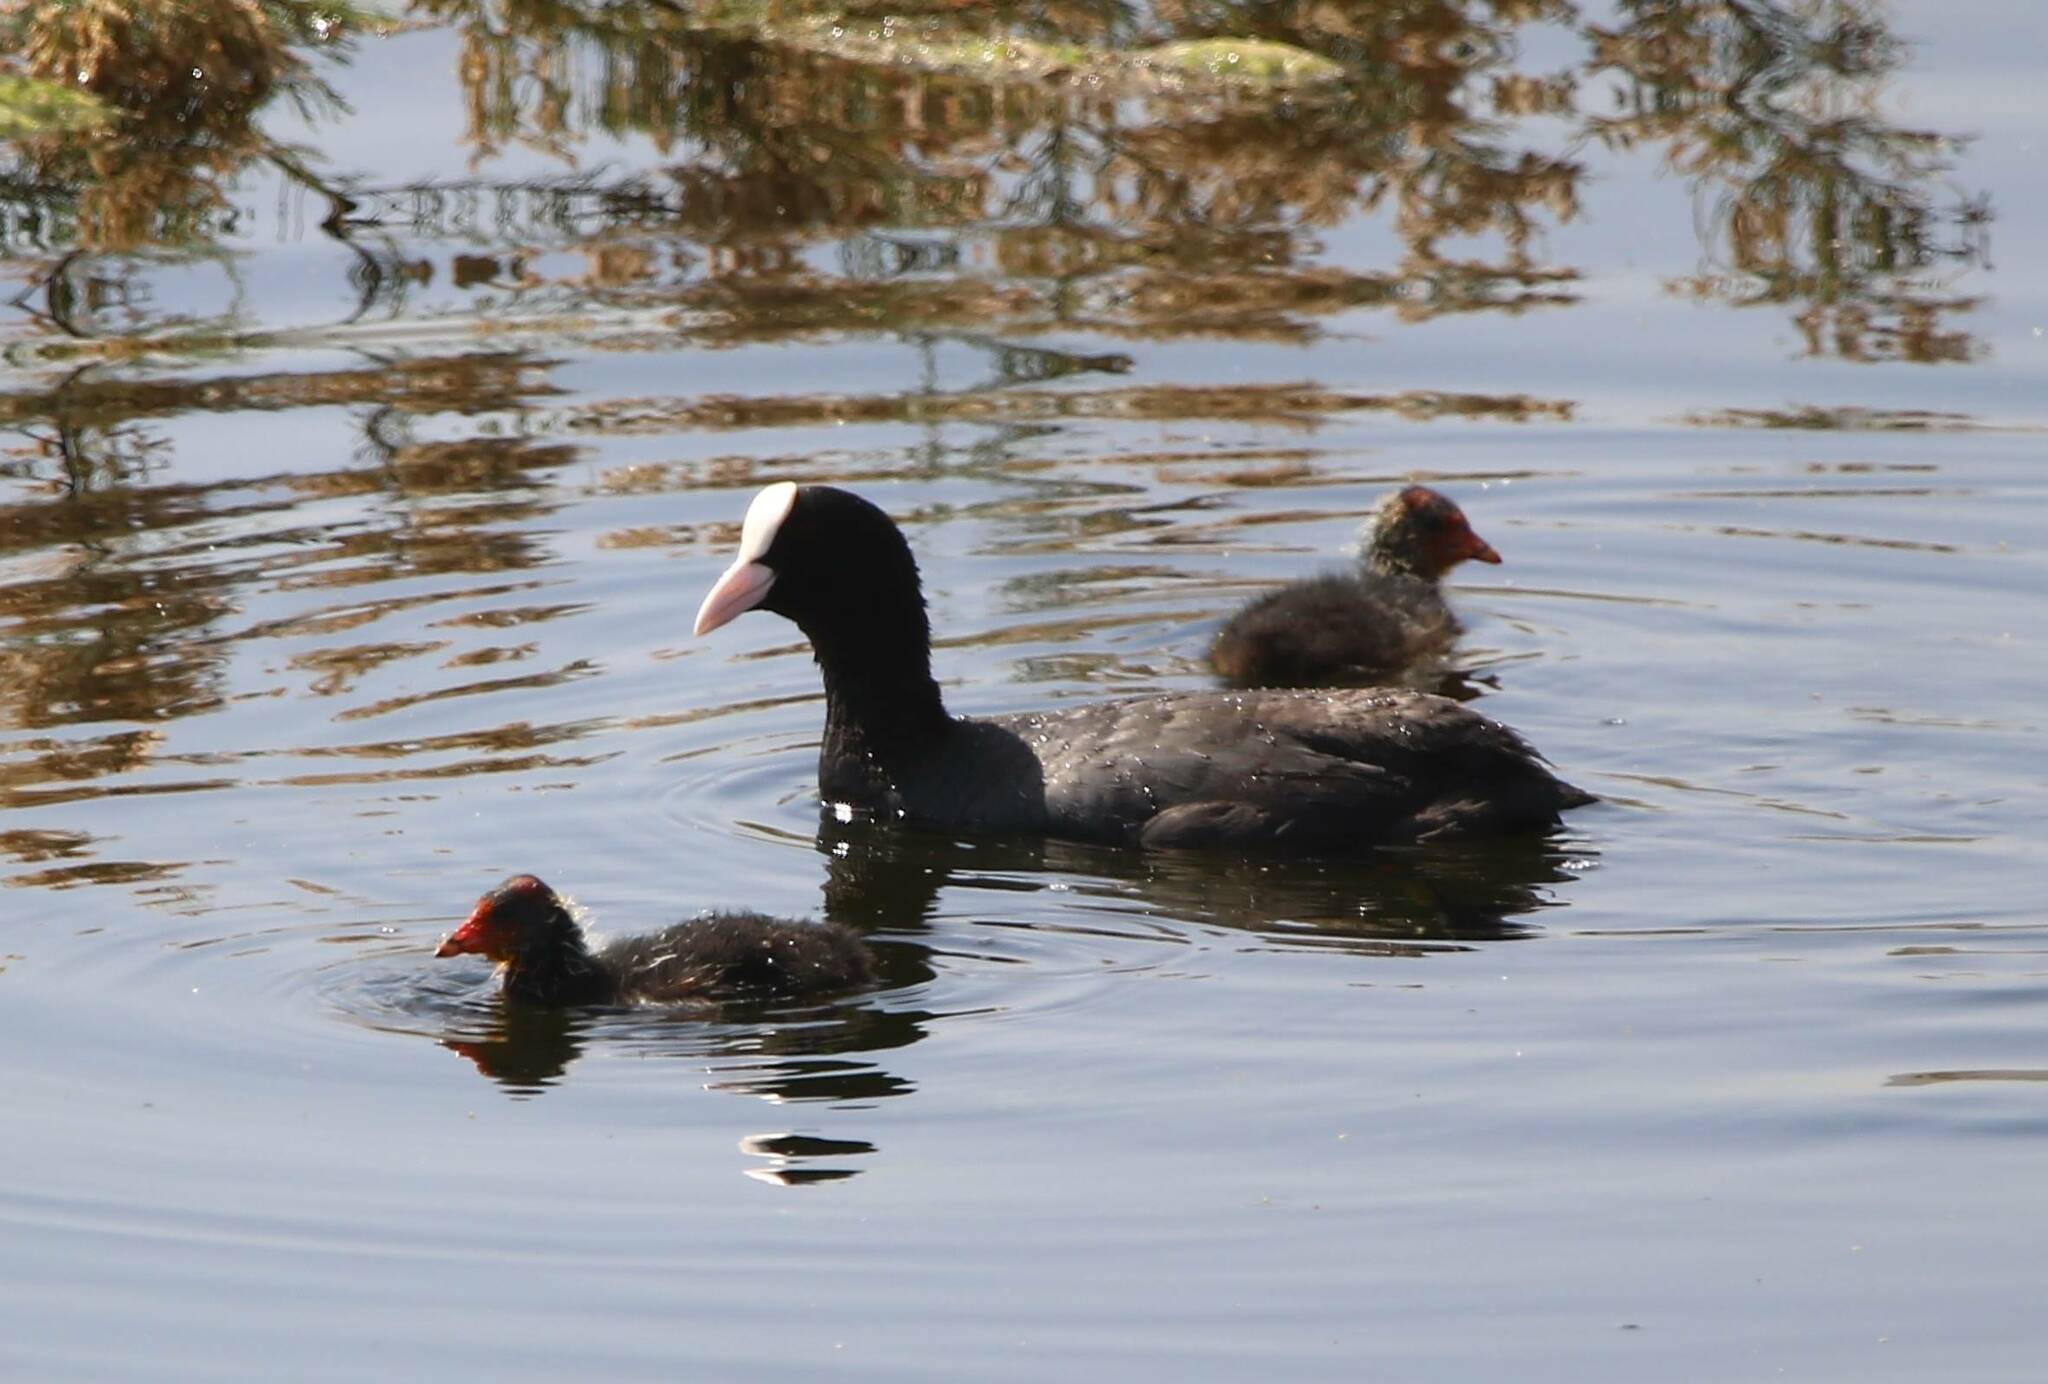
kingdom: Animalia
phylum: Chordata
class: Aves
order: Gruiformes
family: Rallidae
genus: Fulica
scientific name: Fulica atra
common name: Eurasian coot
